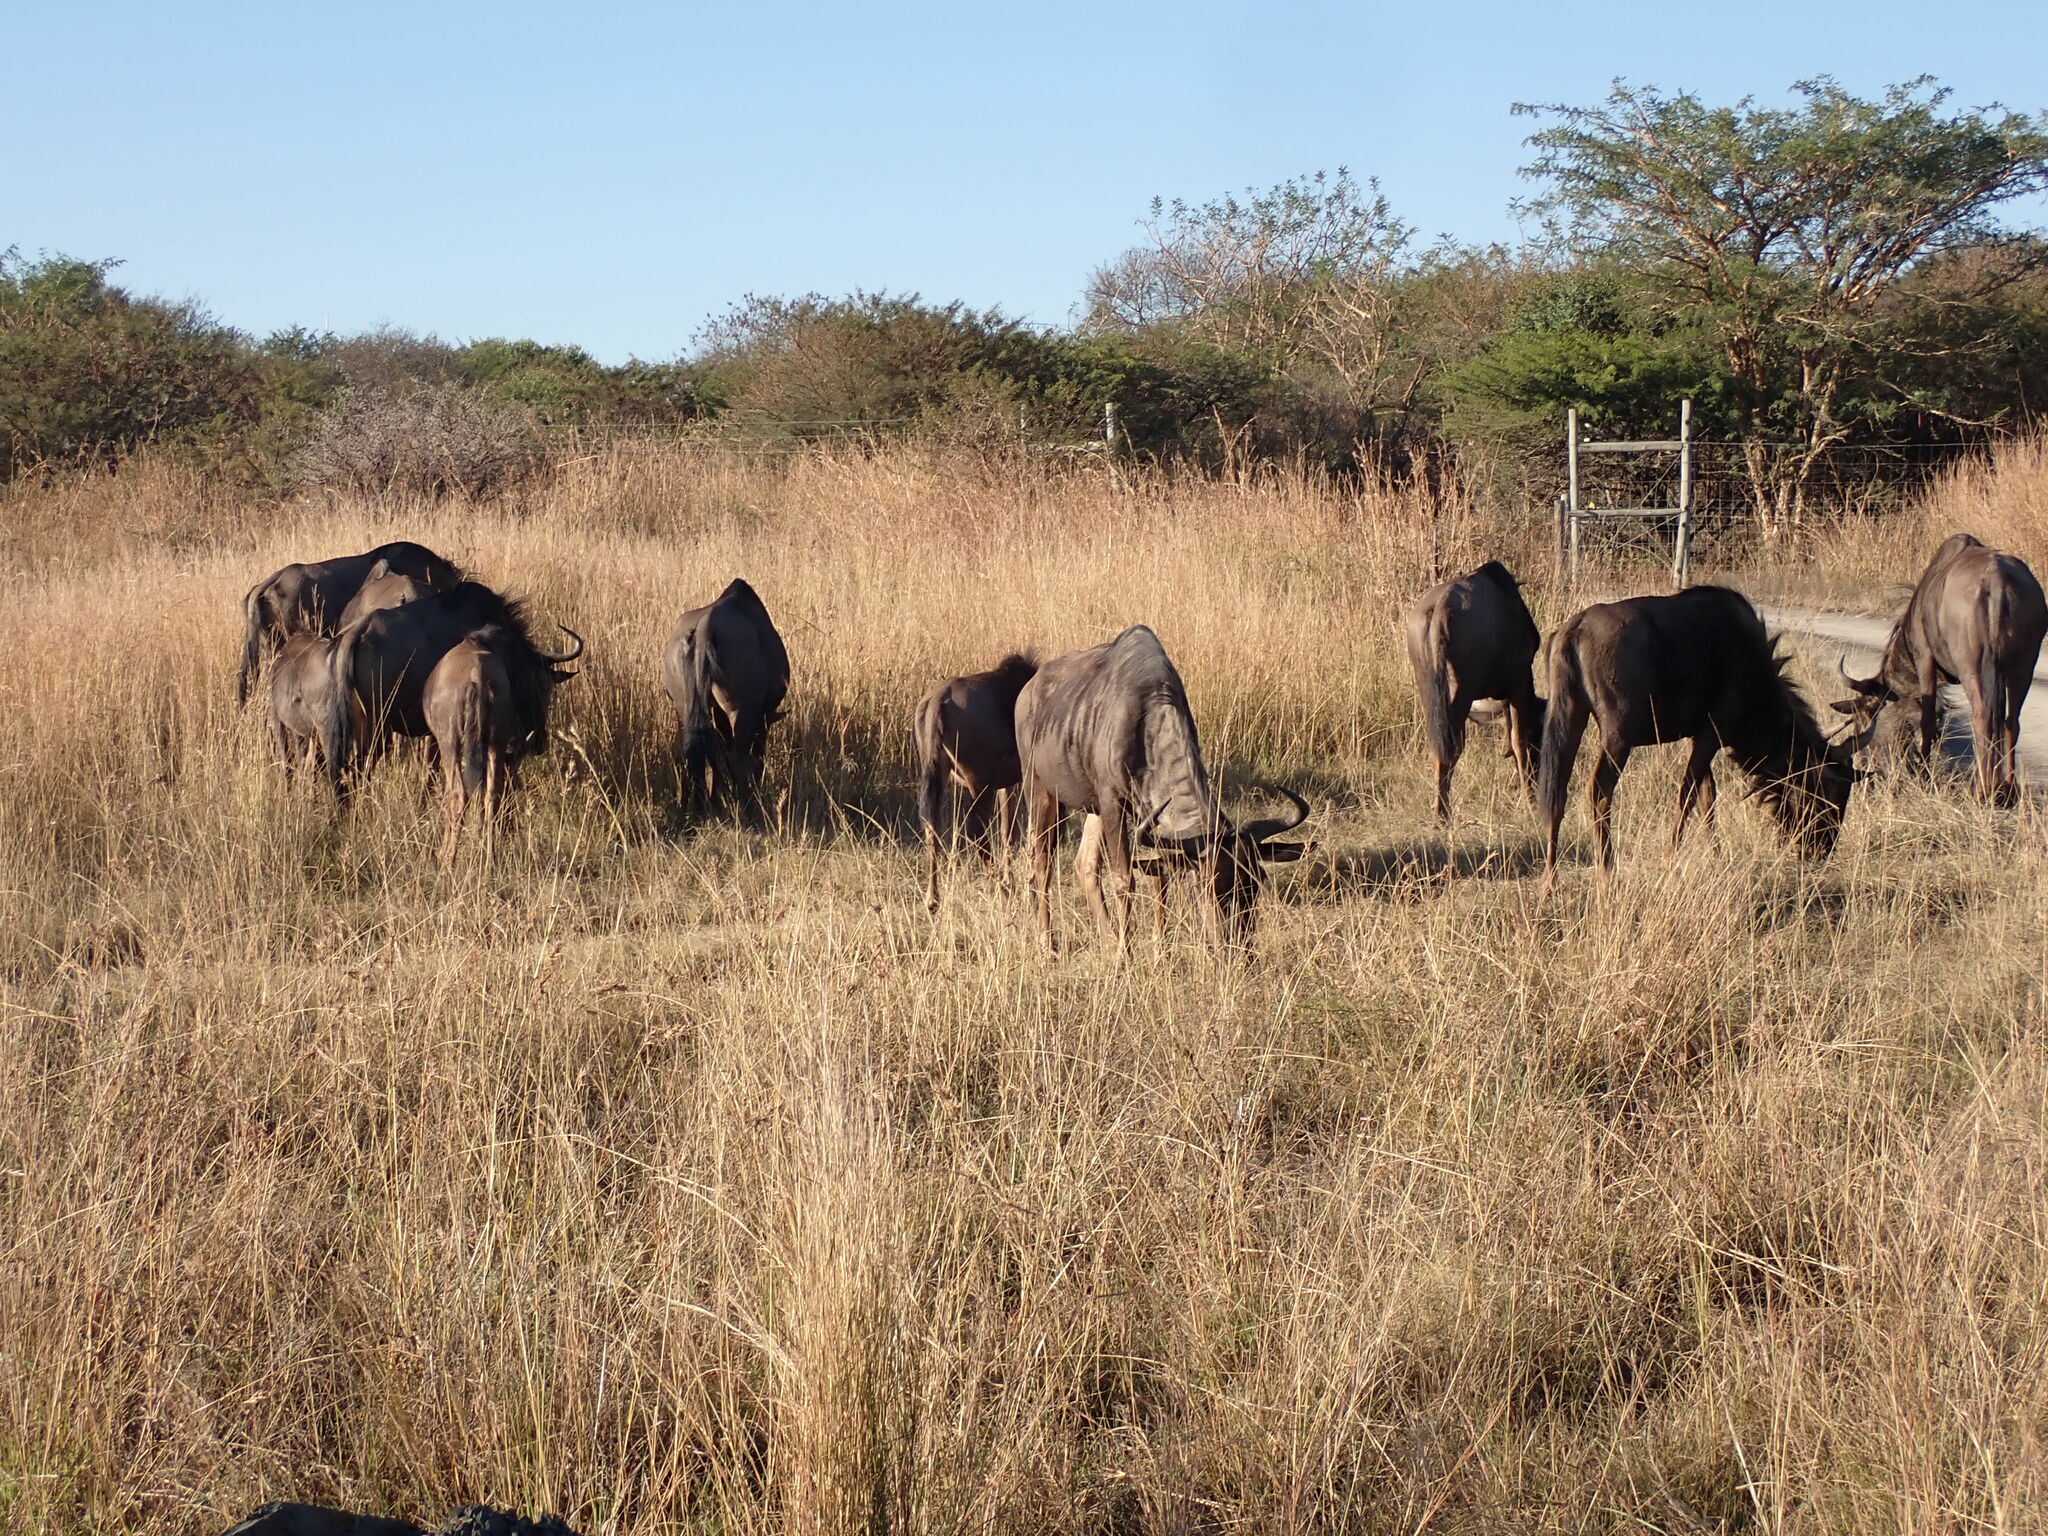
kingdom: Animalia
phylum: Chordata
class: Mammalia
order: Artiodactyla
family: Bovidae
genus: Connochaetes
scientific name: Connochaetes taurinus
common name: Blue wildebeest
